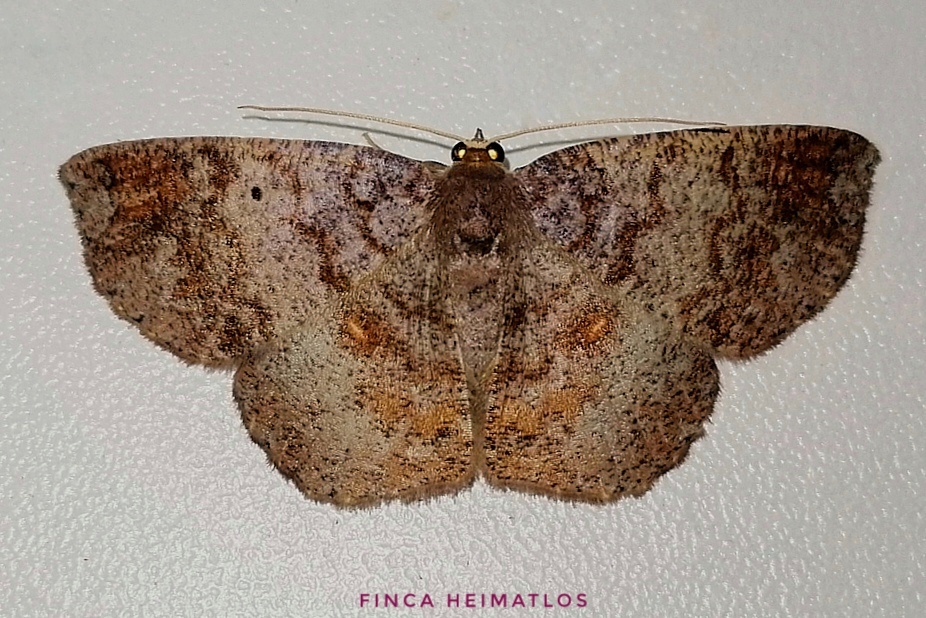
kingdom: Animalia
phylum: Arthropoda
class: Insecta
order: Lepidoptera
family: Geometridae
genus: Thysanopyga
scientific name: Thysanopyga
